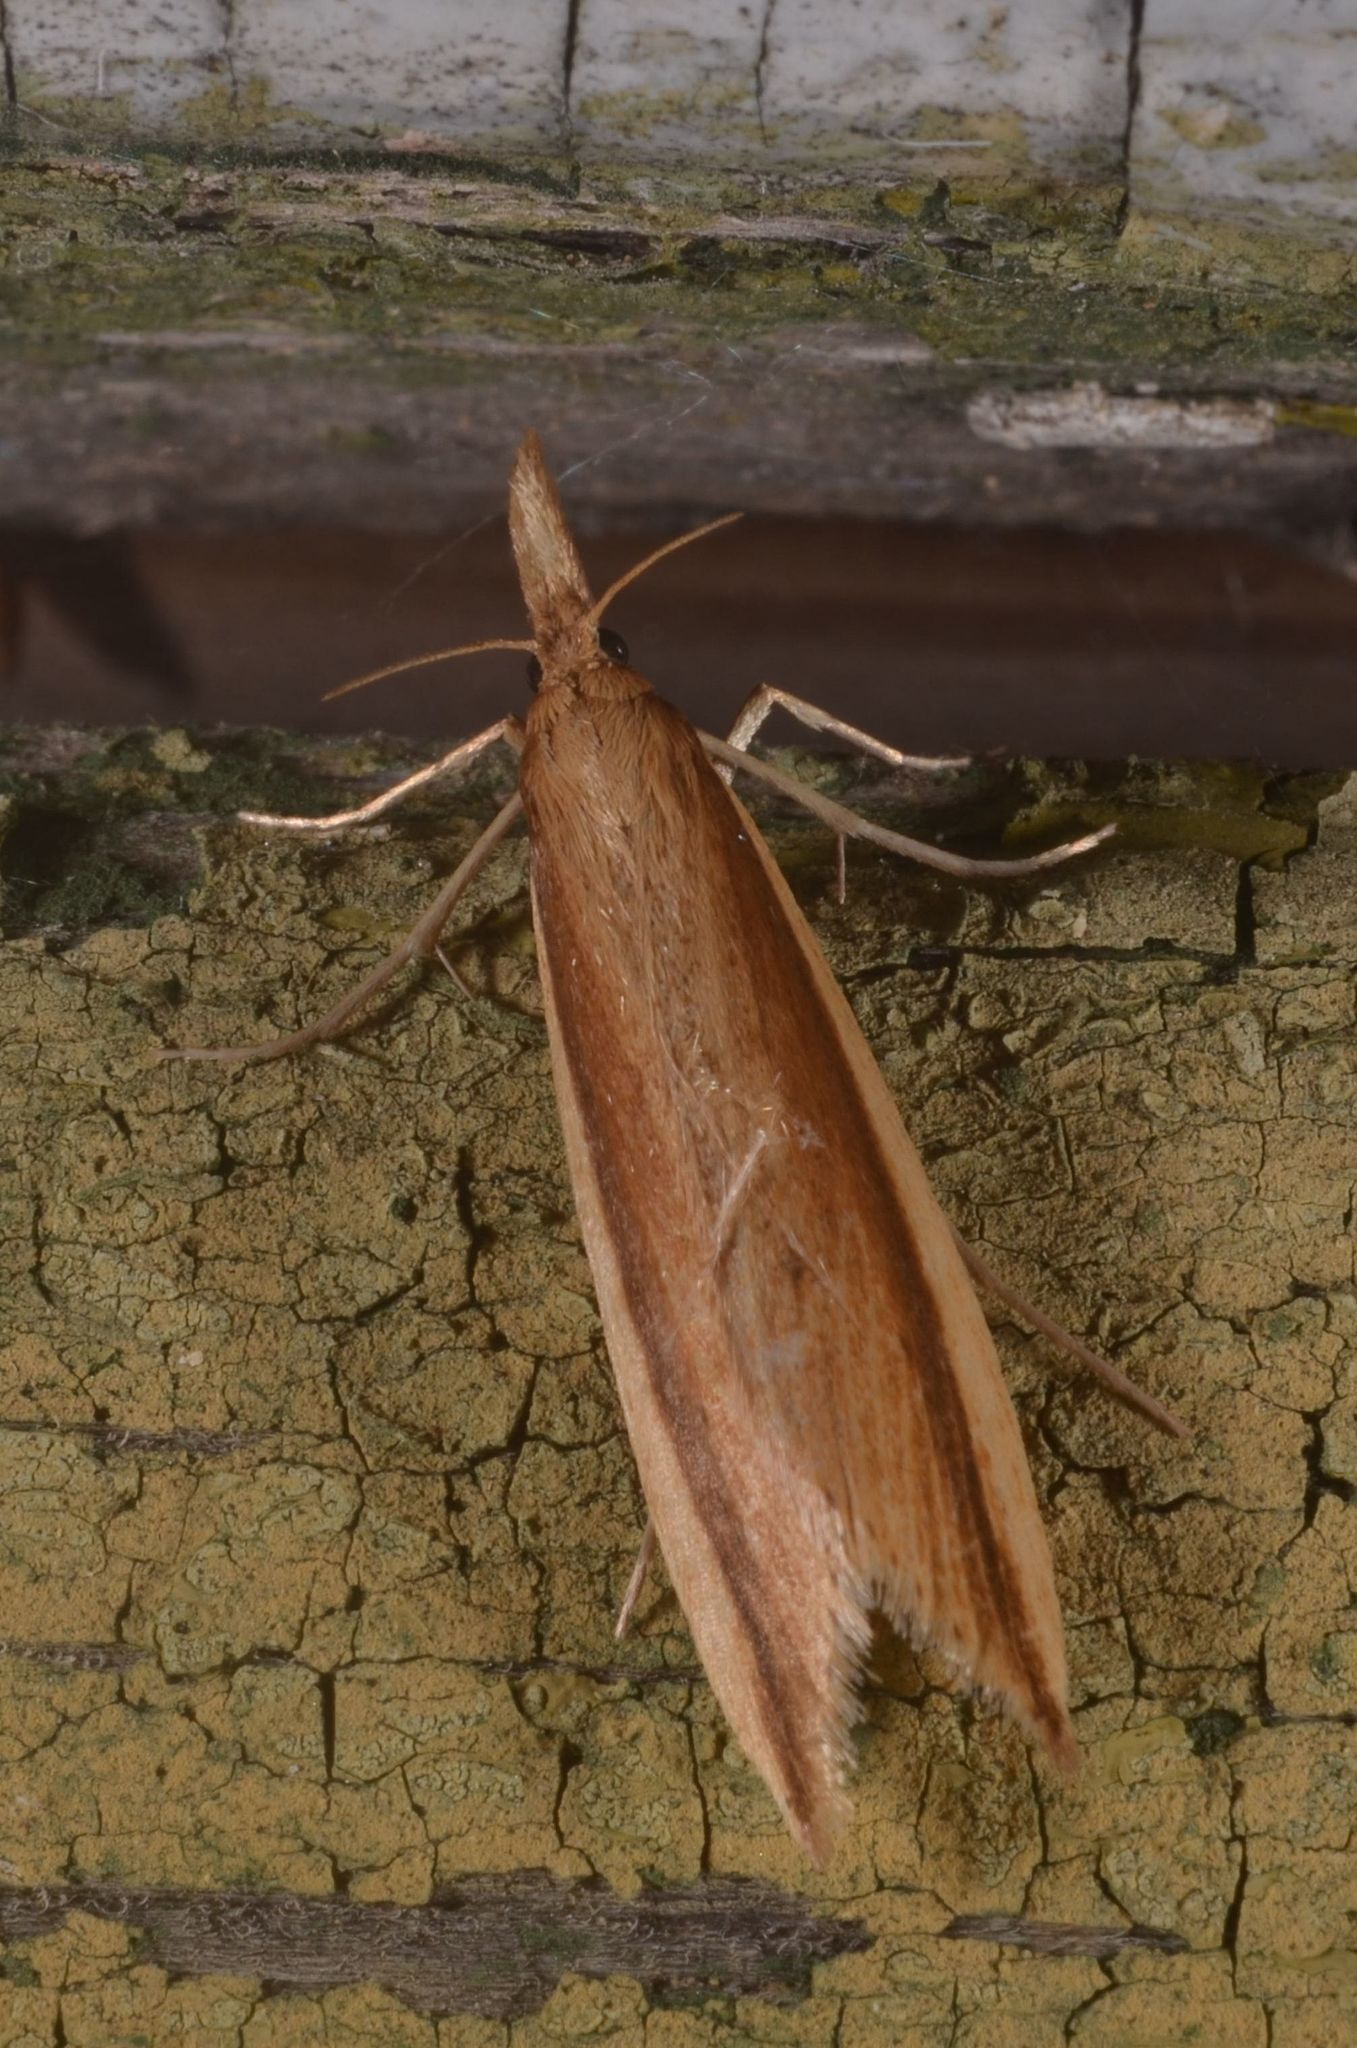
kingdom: Animalia
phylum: Arthropoda
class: Insecta
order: Lepidoptera
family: Crambidae
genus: Donacaula
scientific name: Donacaula mucronella
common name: Scarce water-veneer
